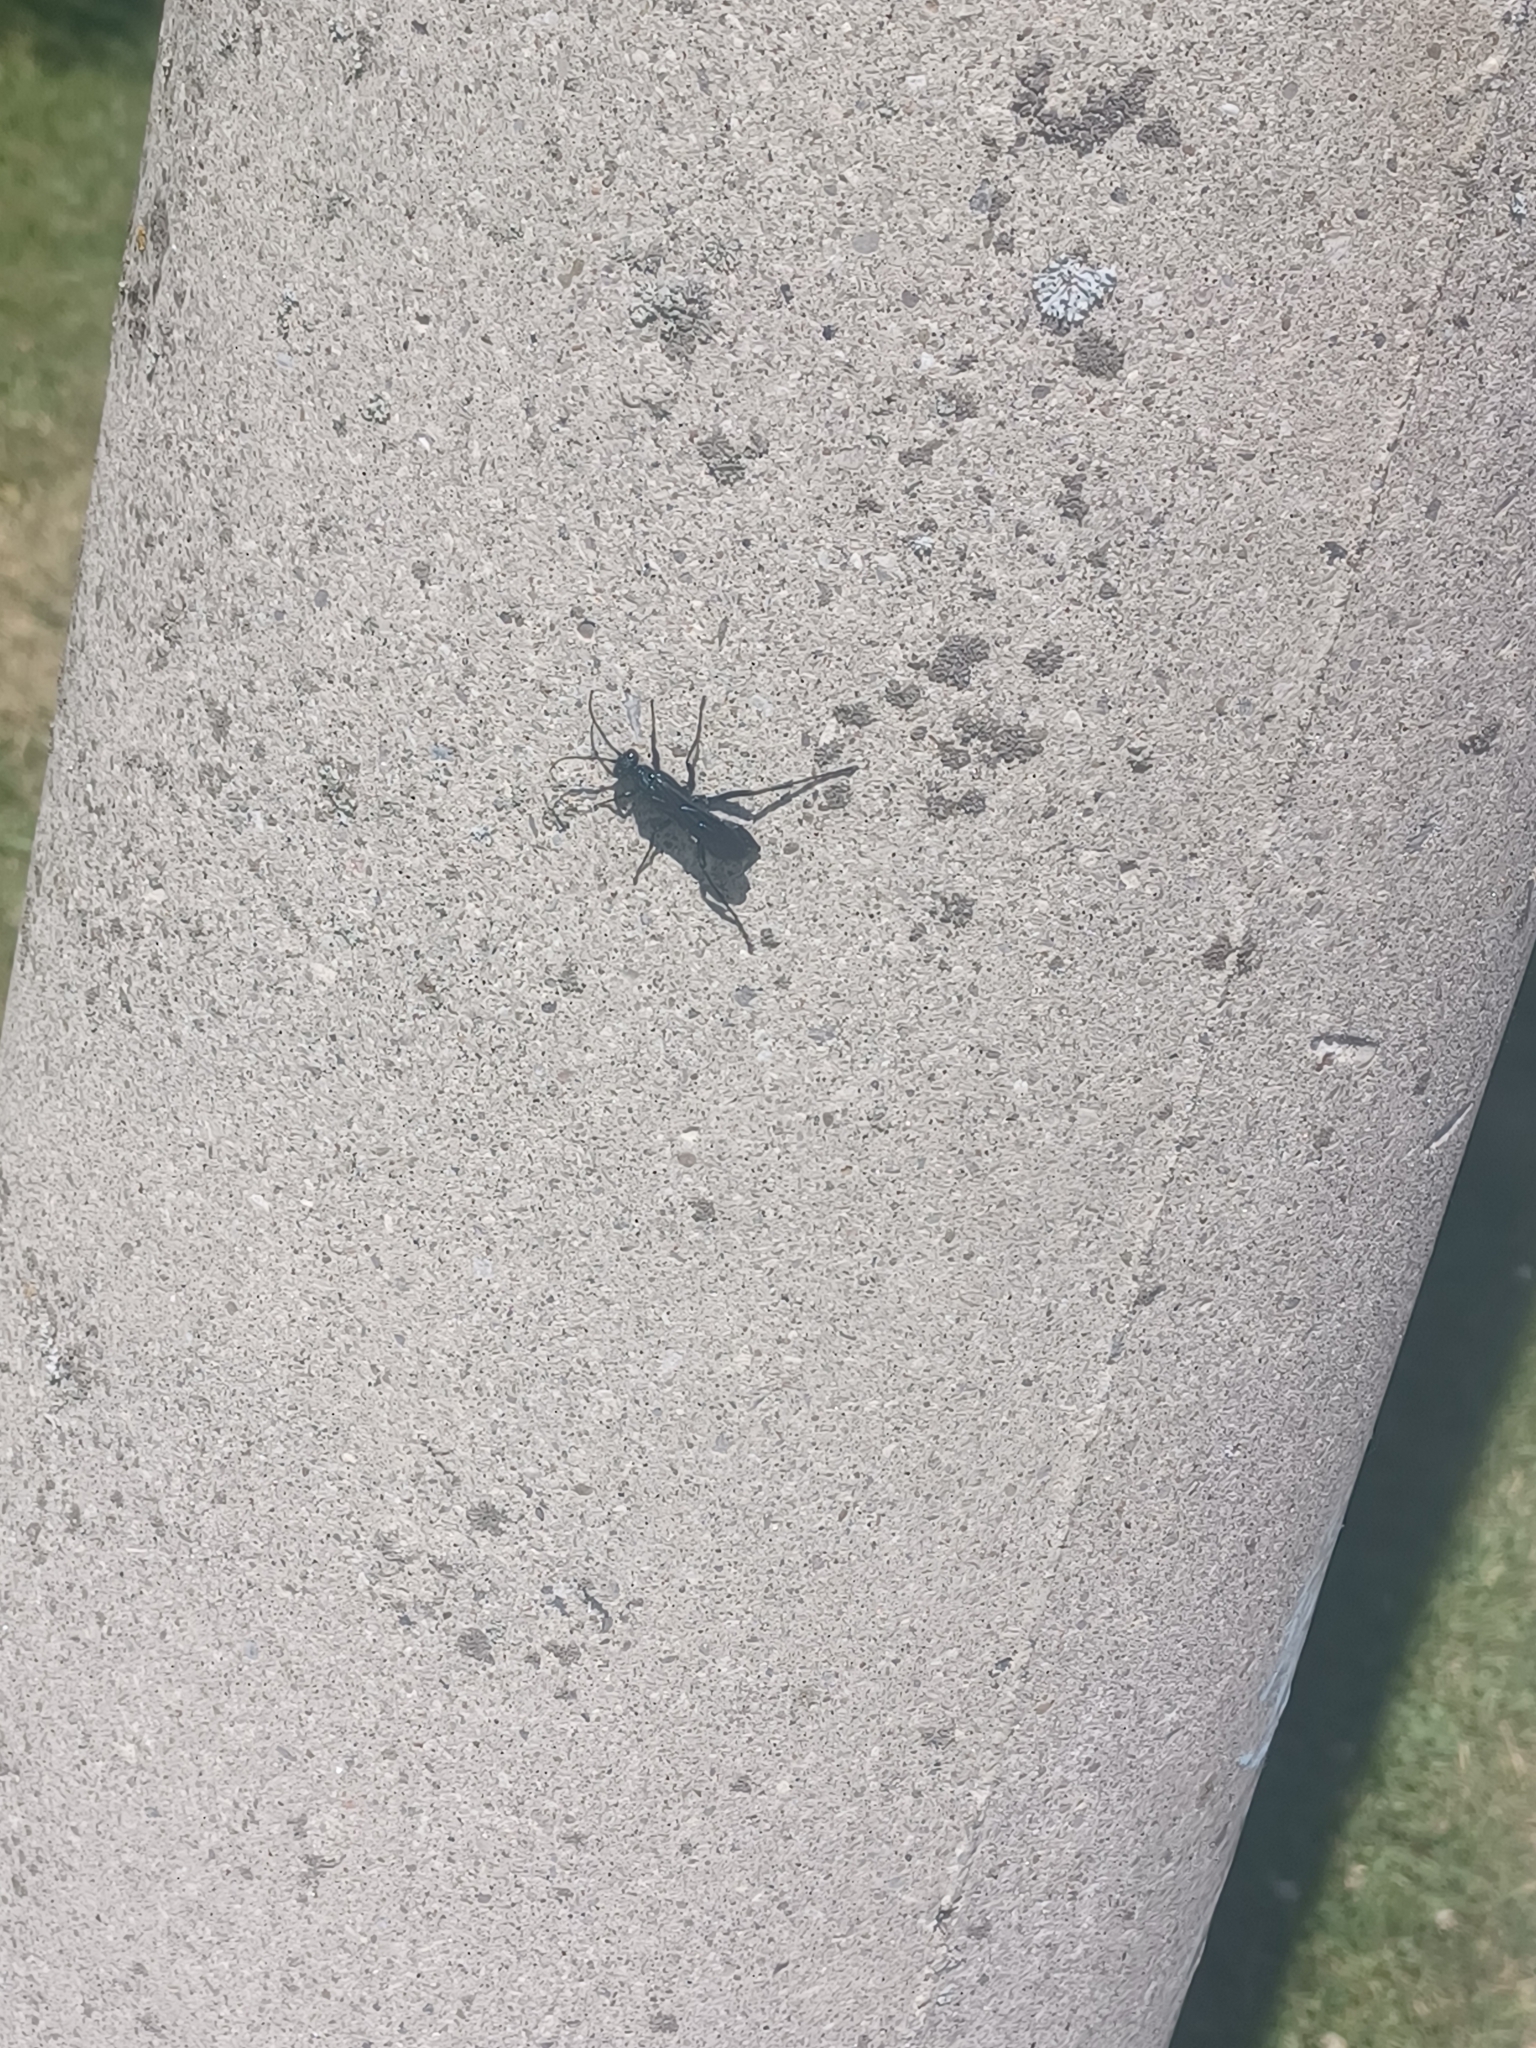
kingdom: Animalia
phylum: Arthropoda
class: Insecta
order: Hymenoptera
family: Sphecidae
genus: Chalybion
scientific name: Chalybion californicum
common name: Mud dauber
